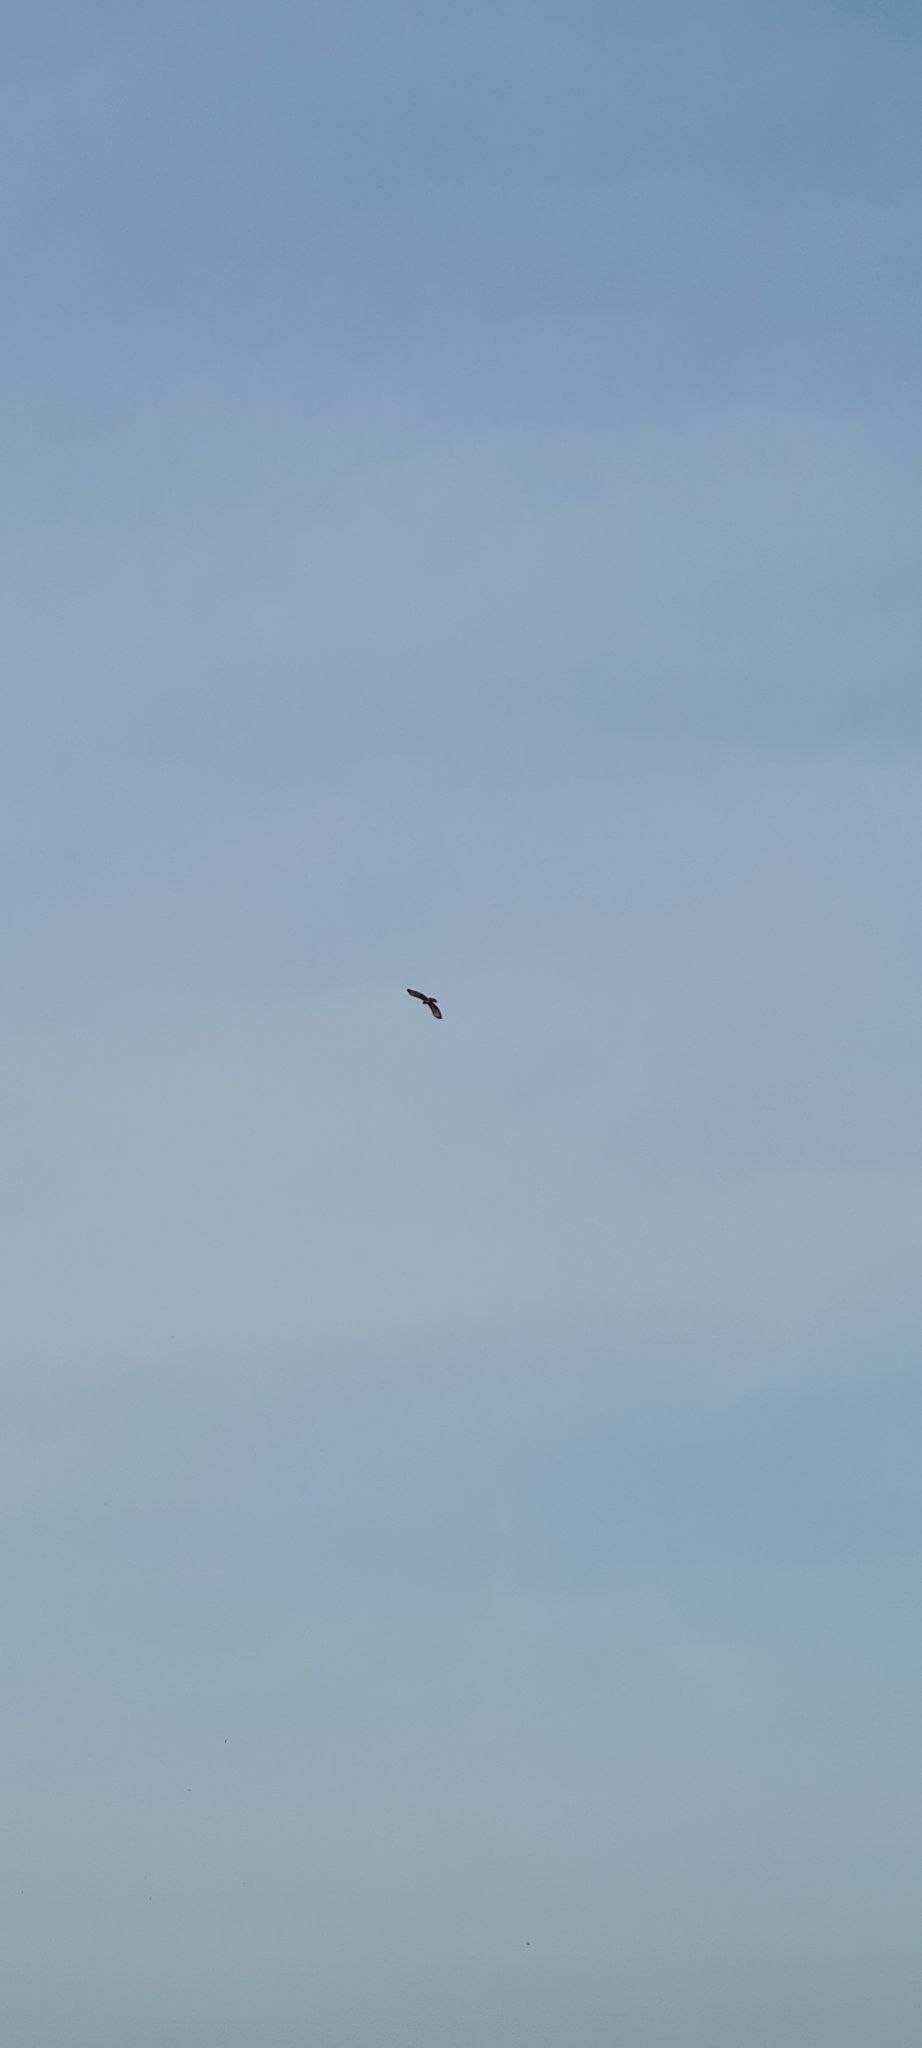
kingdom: Animalia
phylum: Chordata
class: Aves
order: Accipitriformes
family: Accipitridae
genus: Buteo
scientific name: Buteo buteo
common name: Common buzzard
